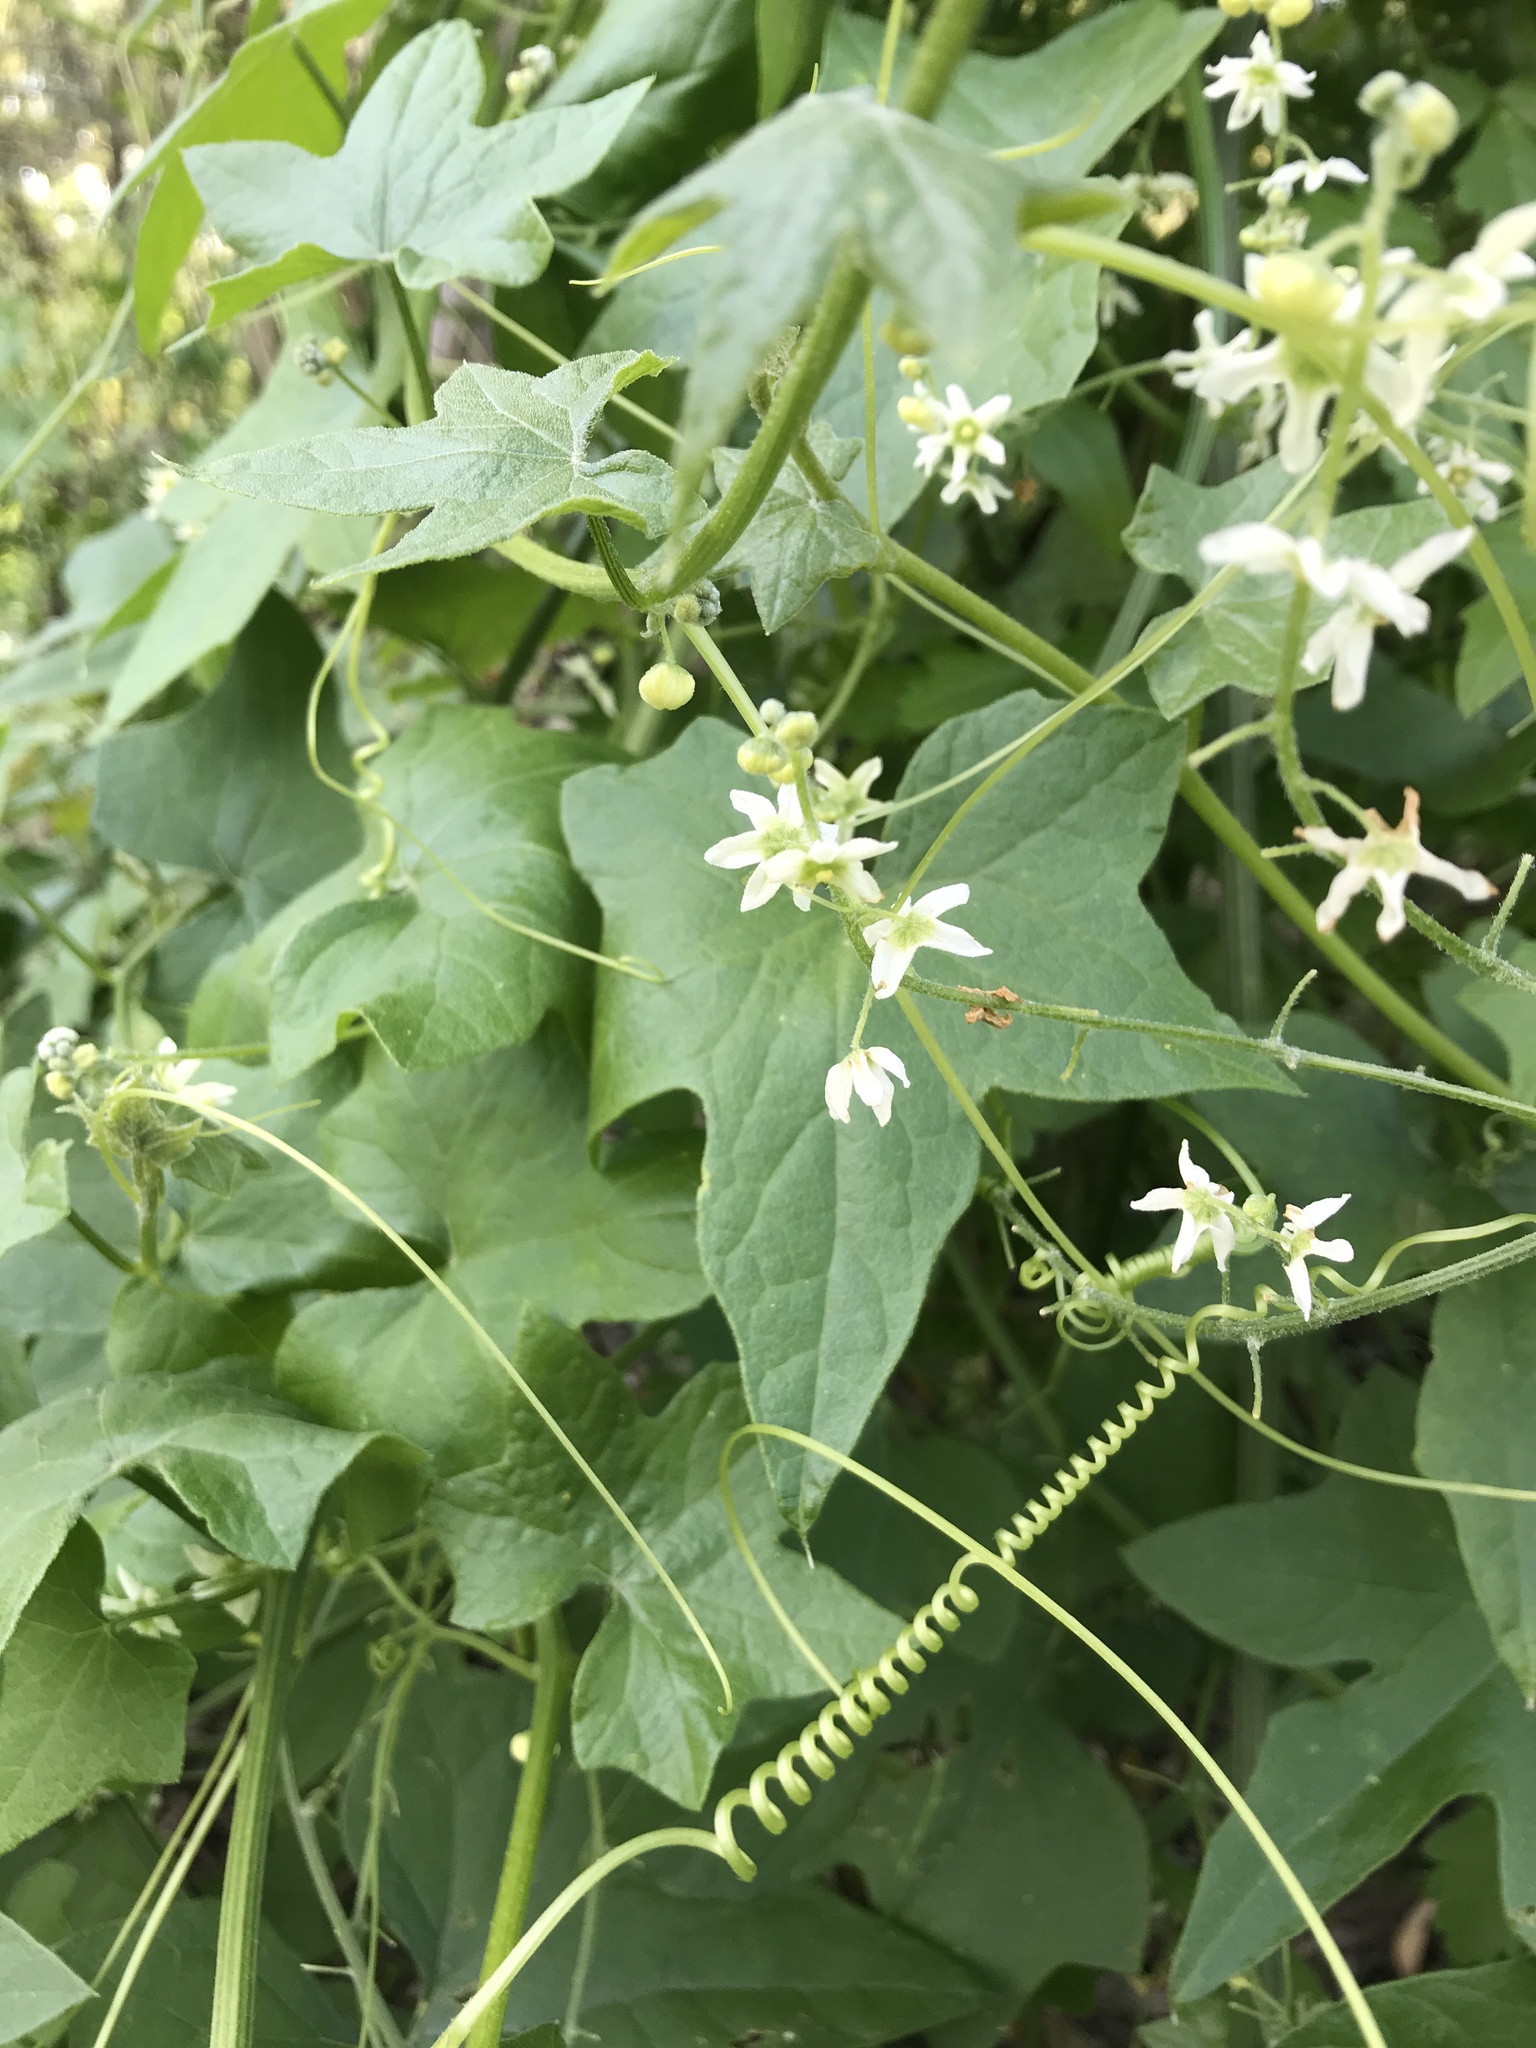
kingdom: Plantae
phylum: Tracheophyta
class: Magnoliopsida
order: Cucurbitales
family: Cucurbitaceae
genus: Marah
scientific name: Marah fabacea
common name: California manroot
